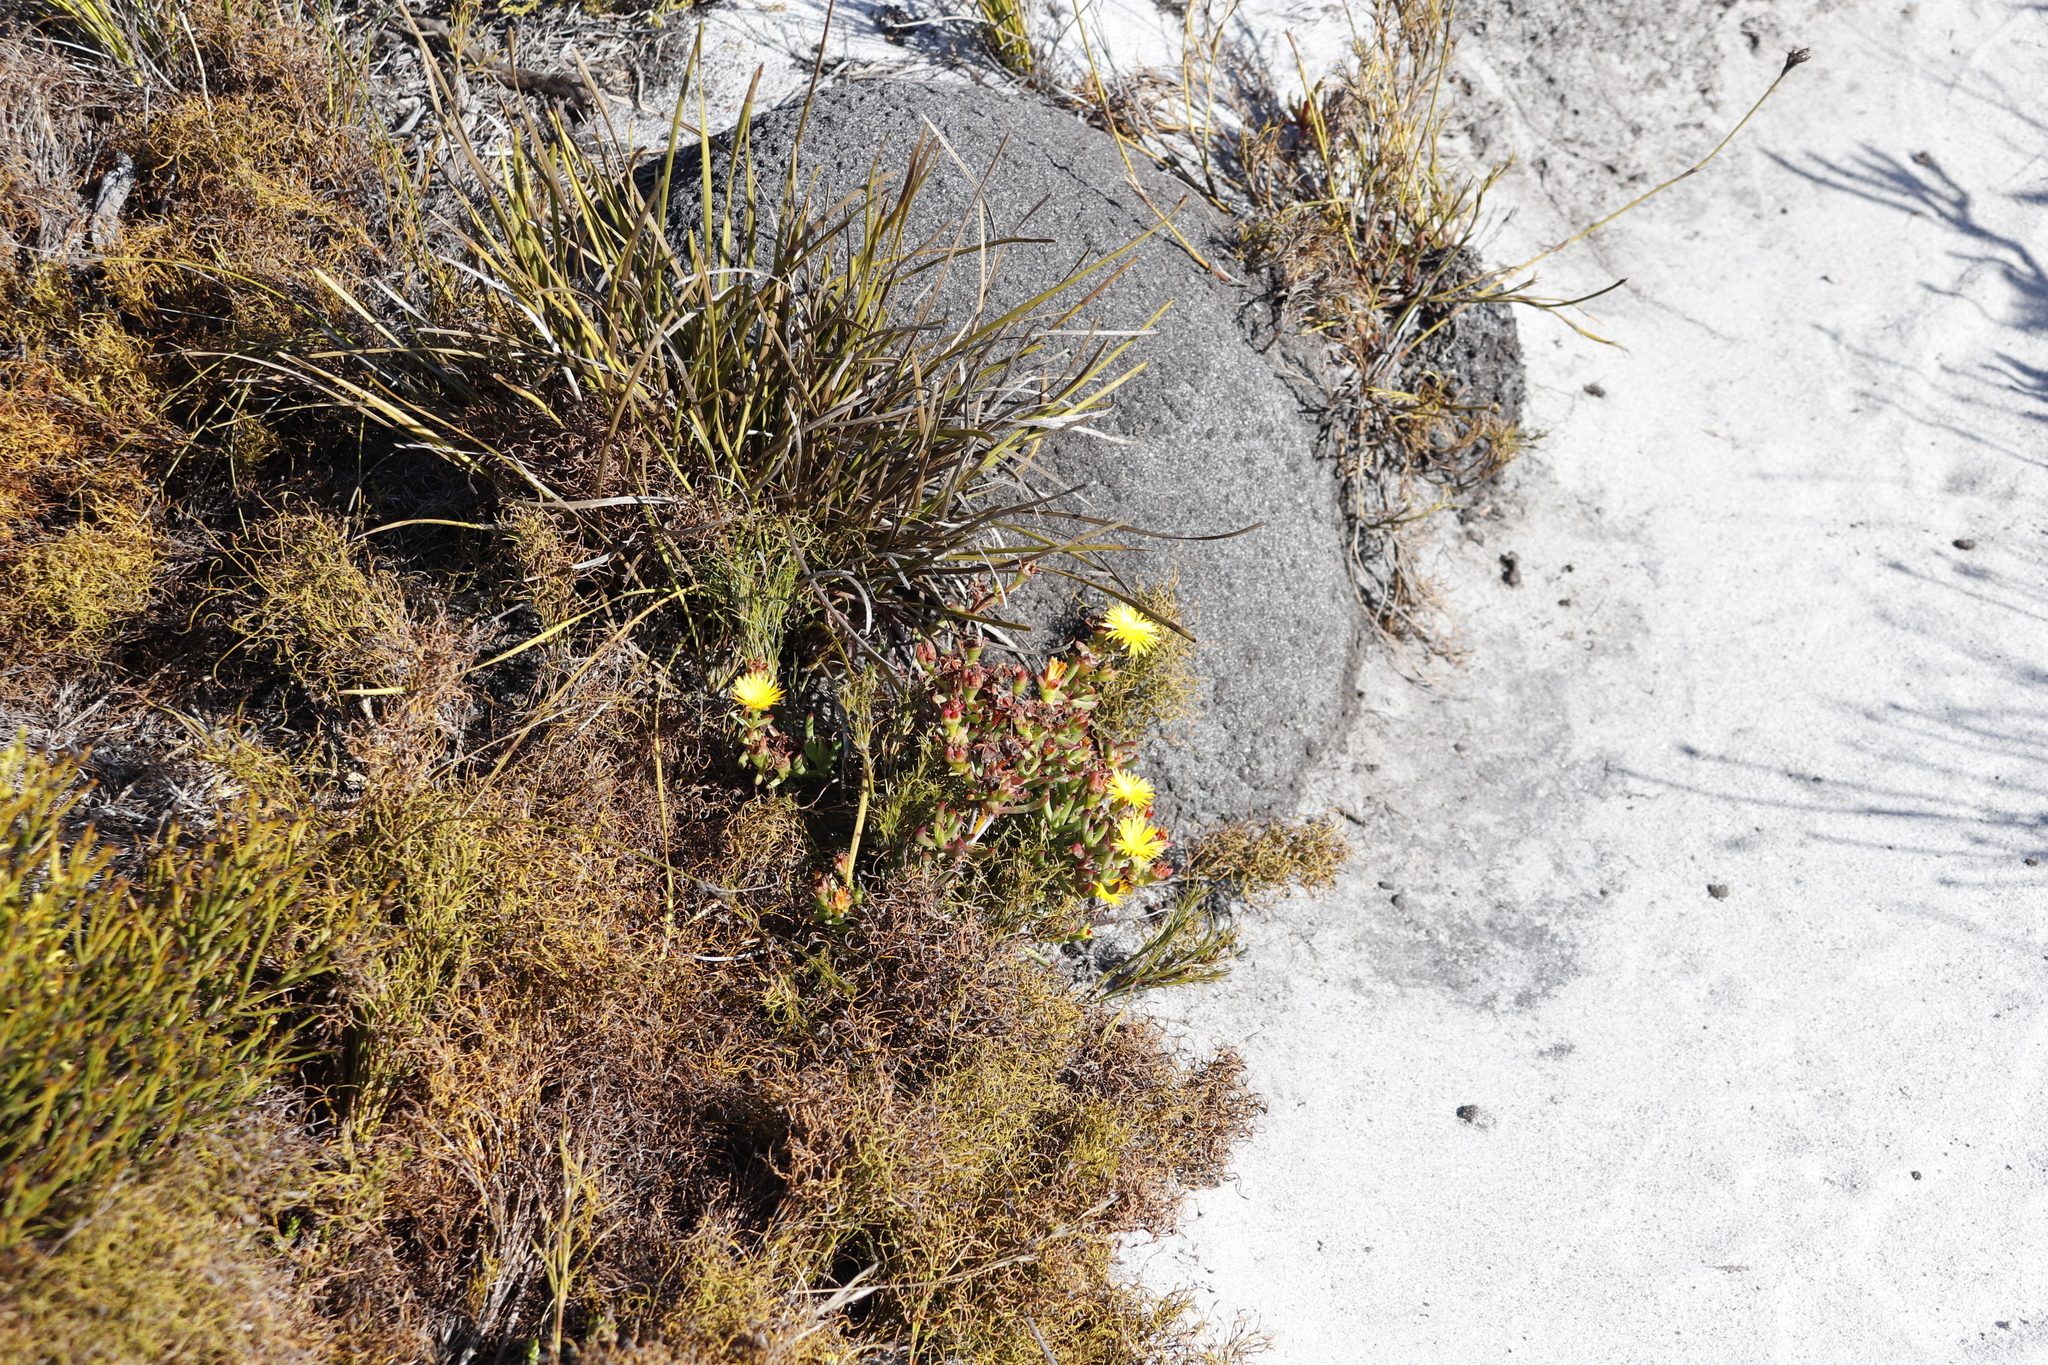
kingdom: Plantae
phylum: Tracheophyta
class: Magnoliopsida
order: Caryophyllales
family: Aizoaceae
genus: Lampranthus
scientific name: Lampranthus promontorii
